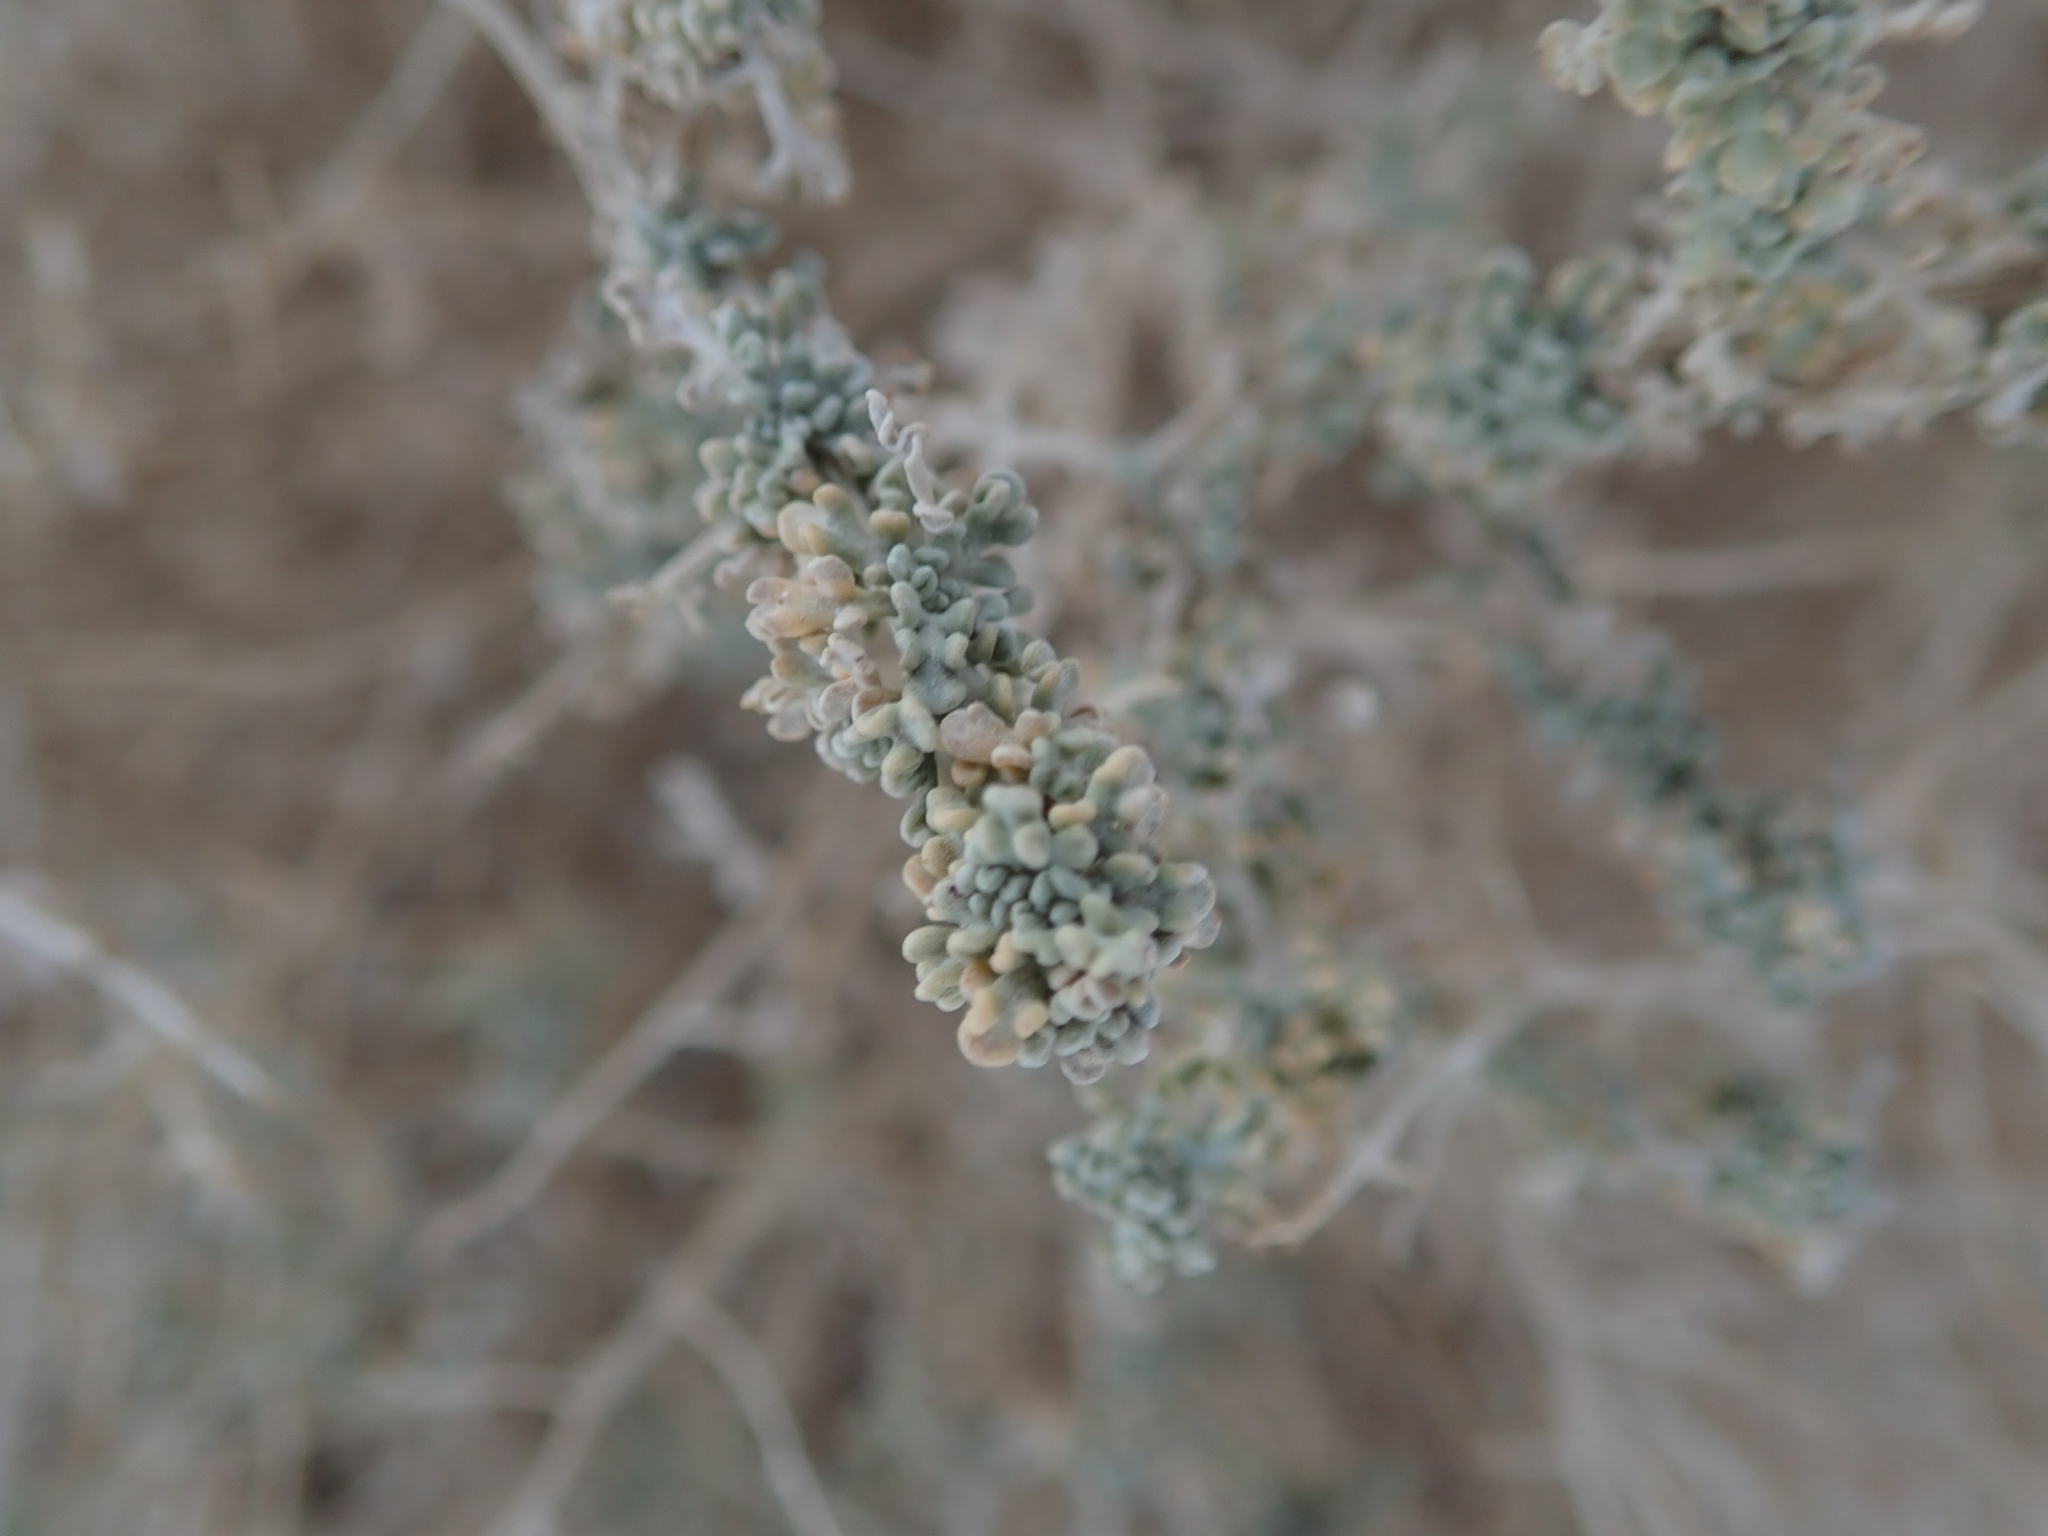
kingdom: Plantae
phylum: Tracheophyta
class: Magnoliopsida
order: Asterales
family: Asteraceae
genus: Ambrosia
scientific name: Ambrosia dumosa
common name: Bur-sage
